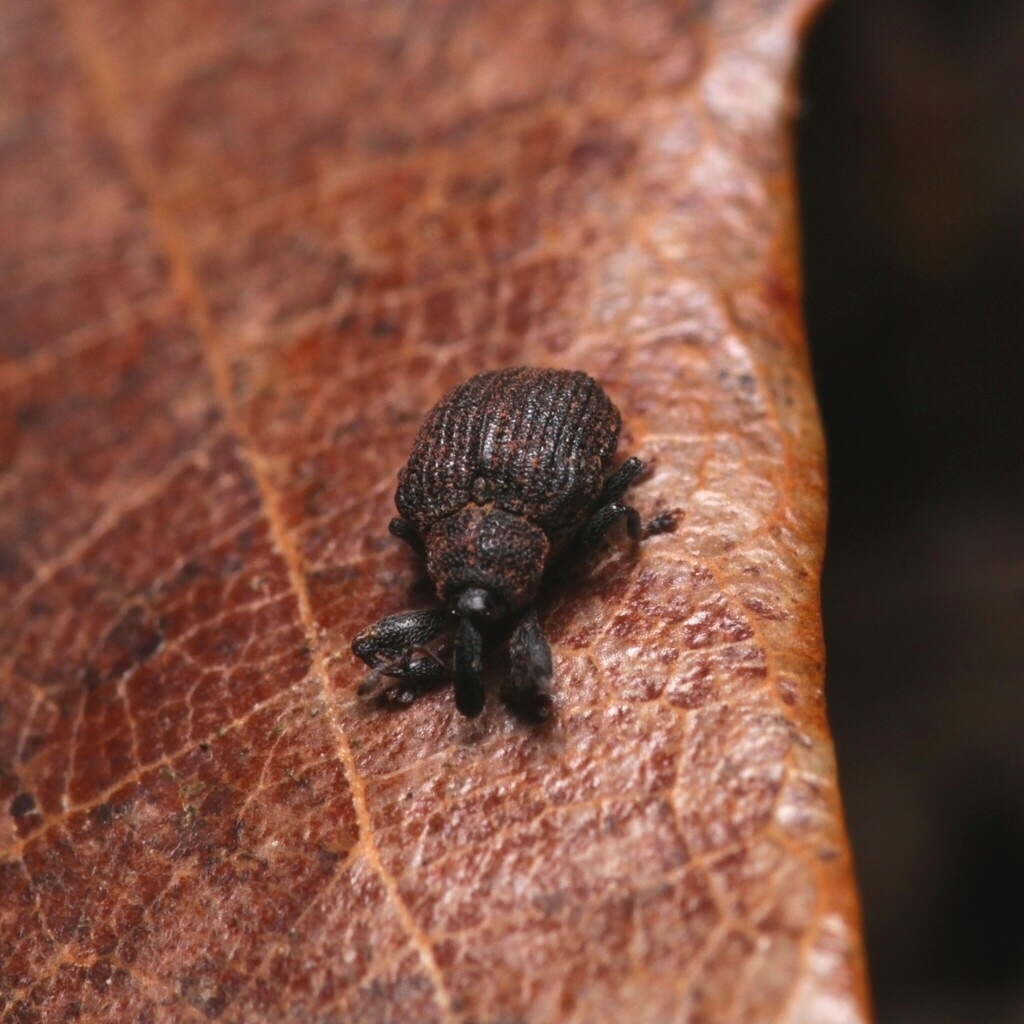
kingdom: Animalia
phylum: Arthropoda
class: Insecta
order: Coleoptera
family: Curculionidae
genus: Odontopus
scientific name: Odontopus calceatus
